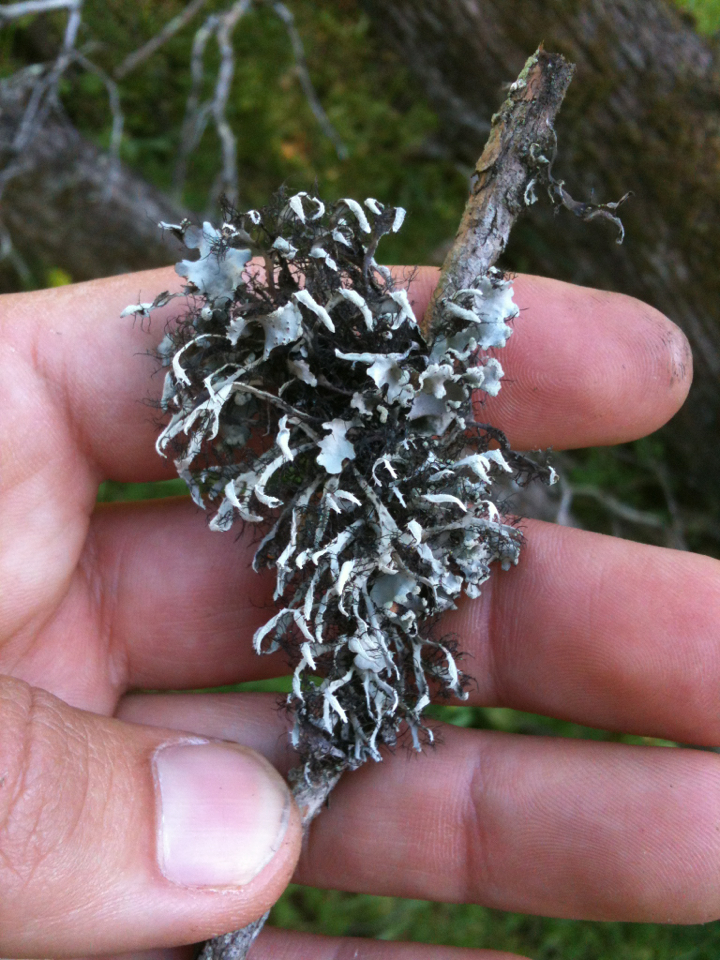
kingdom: Fungi
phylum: Ascomycota
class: Lecanoromycetes
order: Caliciales
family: Physciaceae
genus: Leucodermia
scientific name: Leucodermia leucomelos
